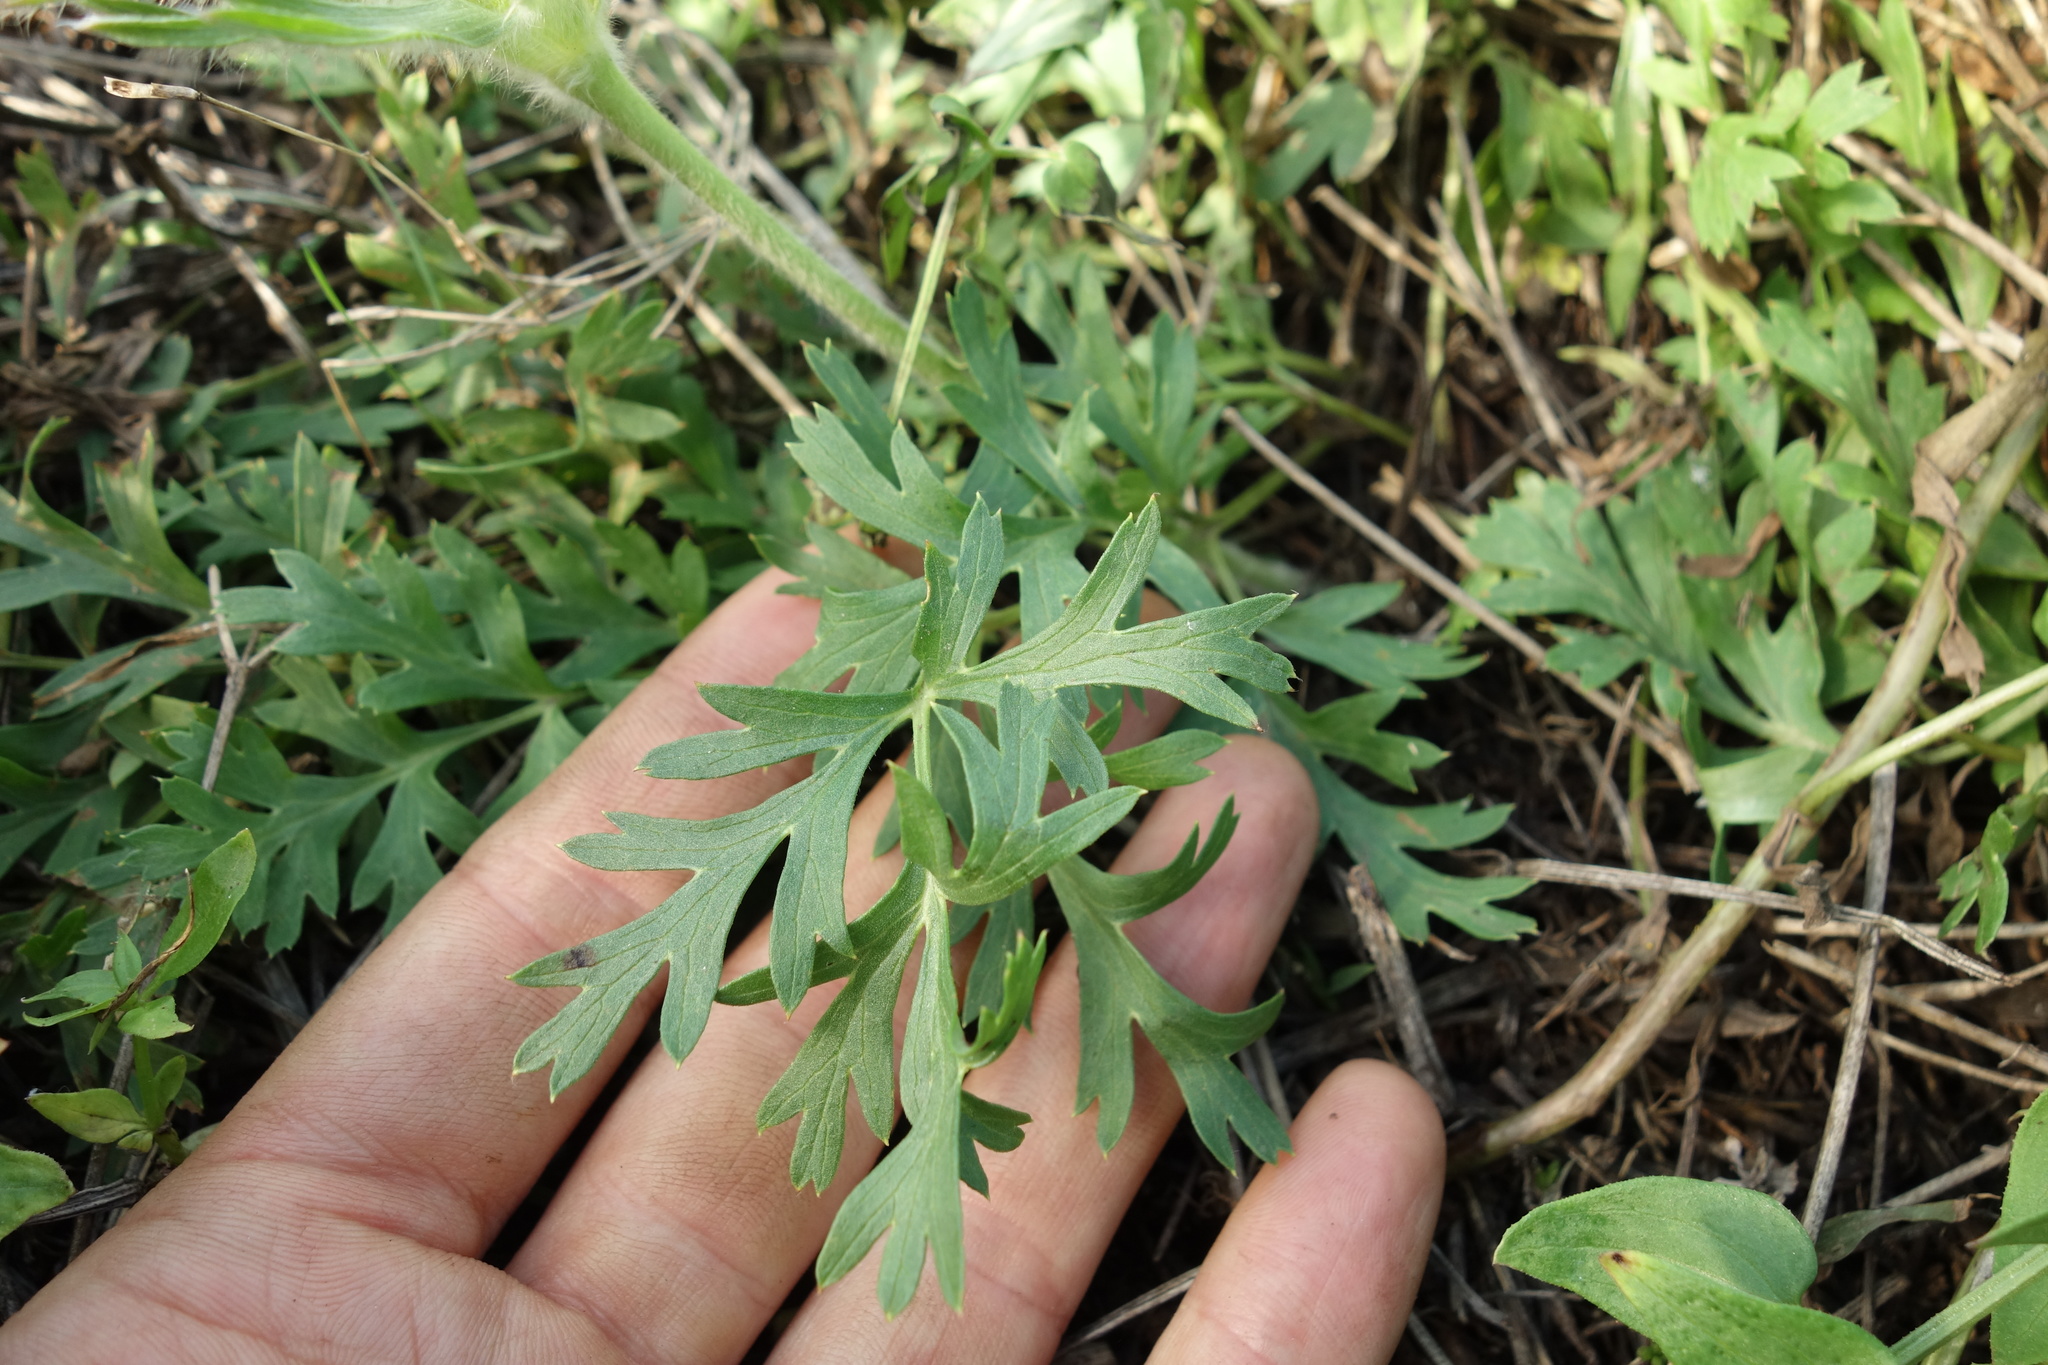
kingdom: Plantae
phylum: Tracheophyta
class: Magnoliopsida
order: Ranunculales
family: Ranunculaceae
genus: Pulsatilla
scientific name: Pulsatilla turczaninovii
